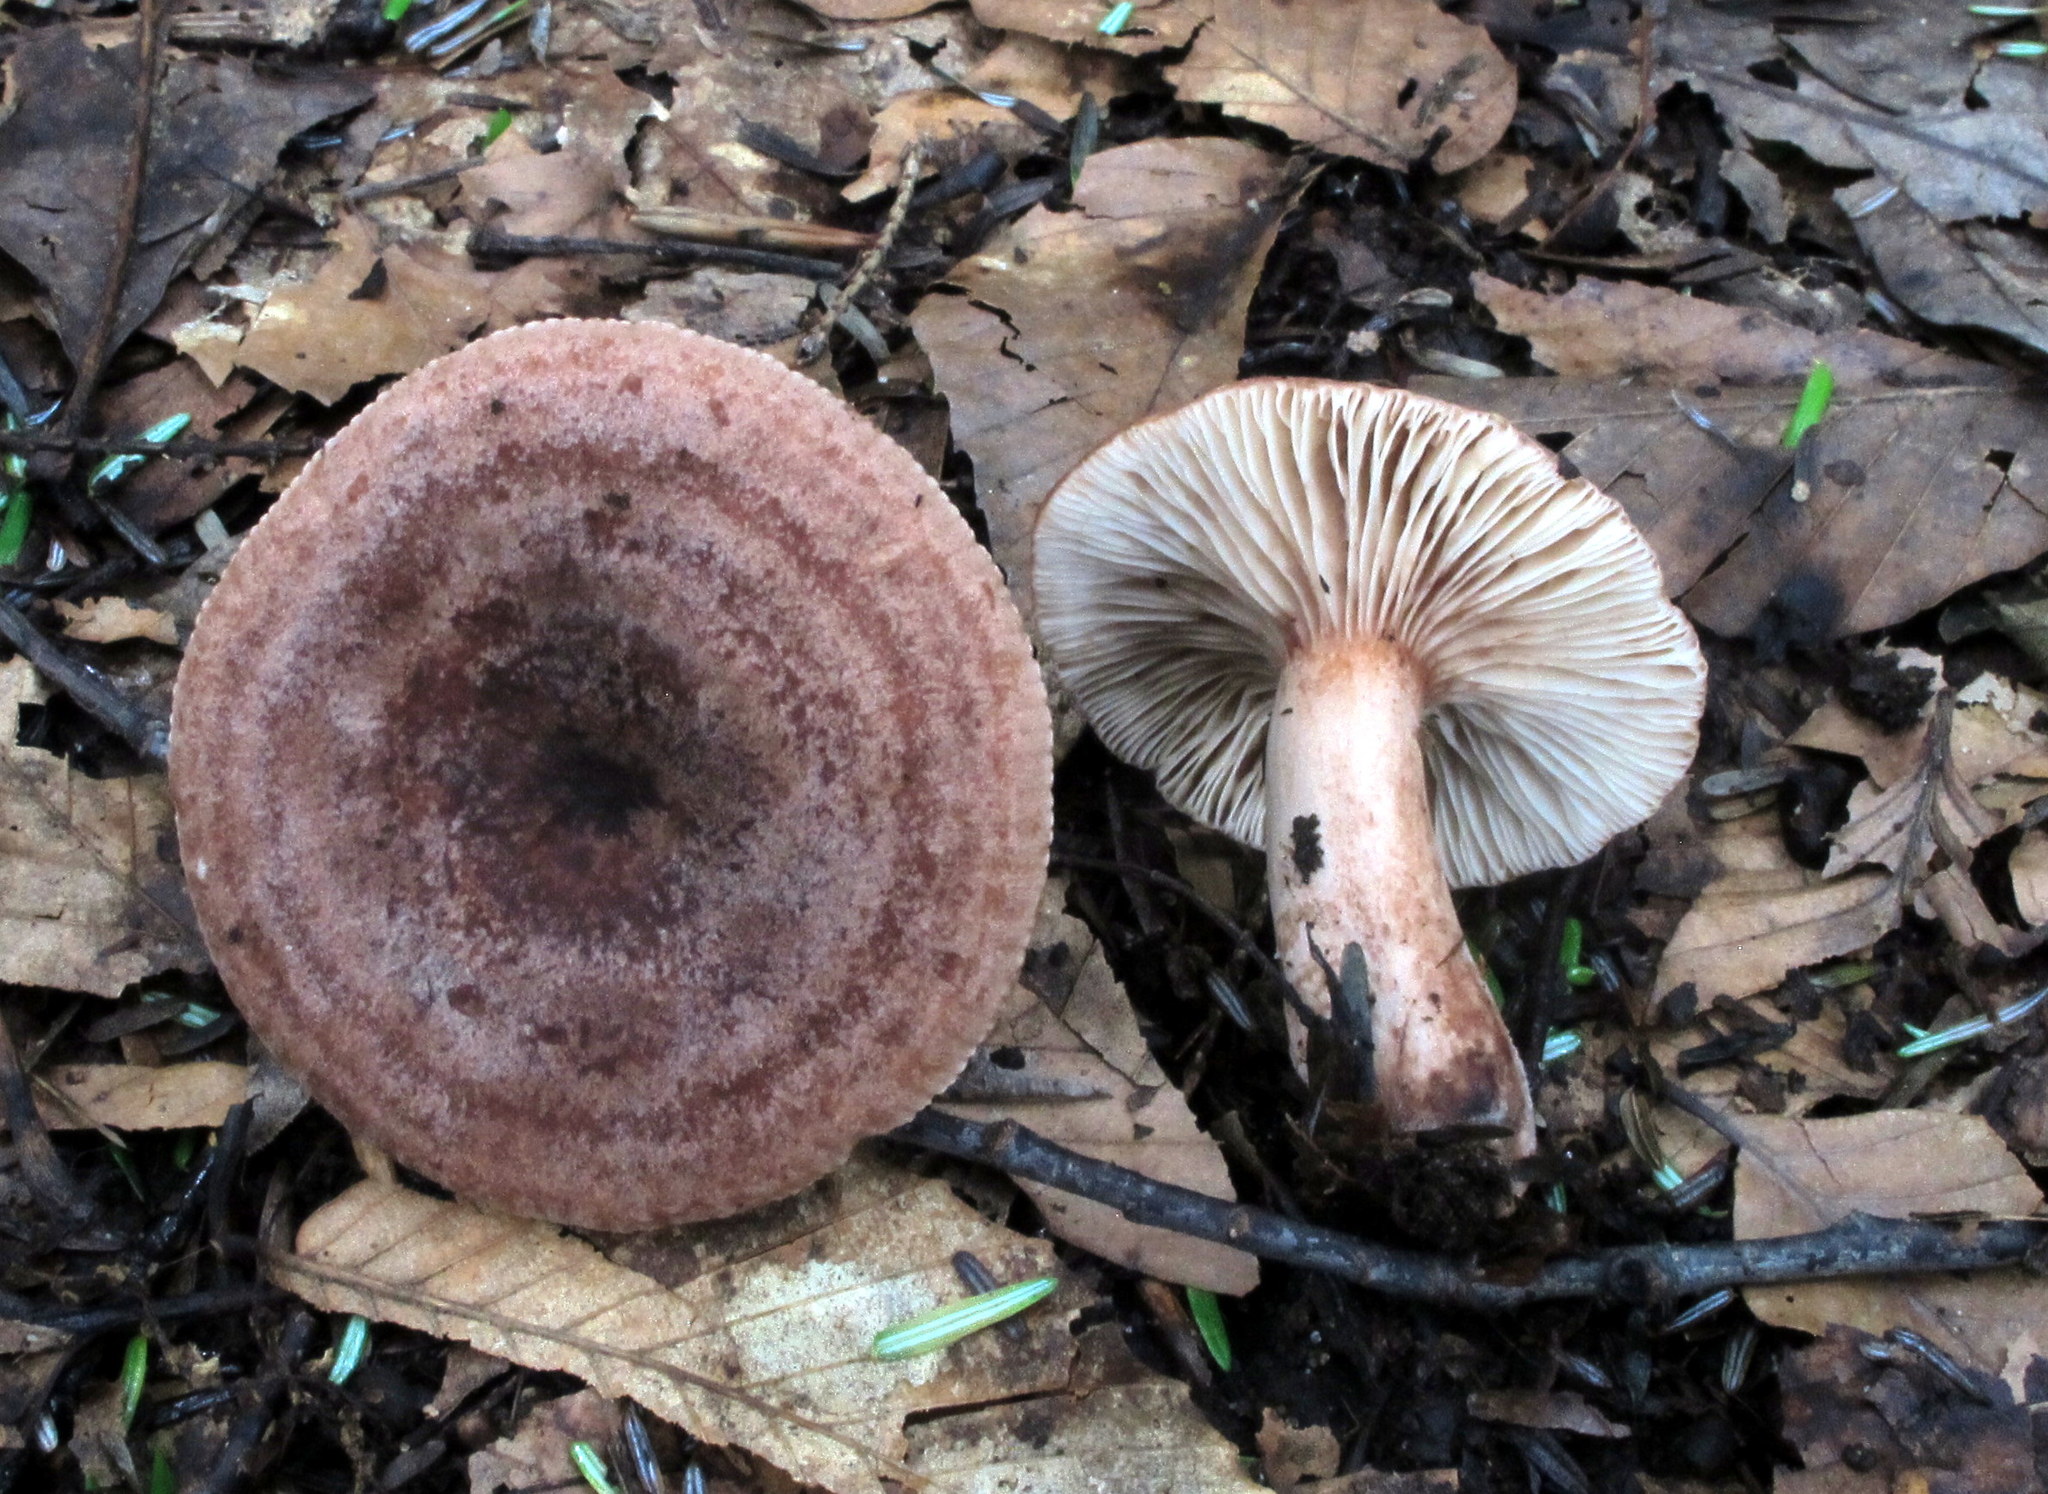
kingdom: Fungi
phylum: Basidiomycota
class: Agaricomycetes
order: Russulales
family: Russulaceae
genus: Lactarius
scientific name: Lactarius quietus
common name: Oak milk-cap
